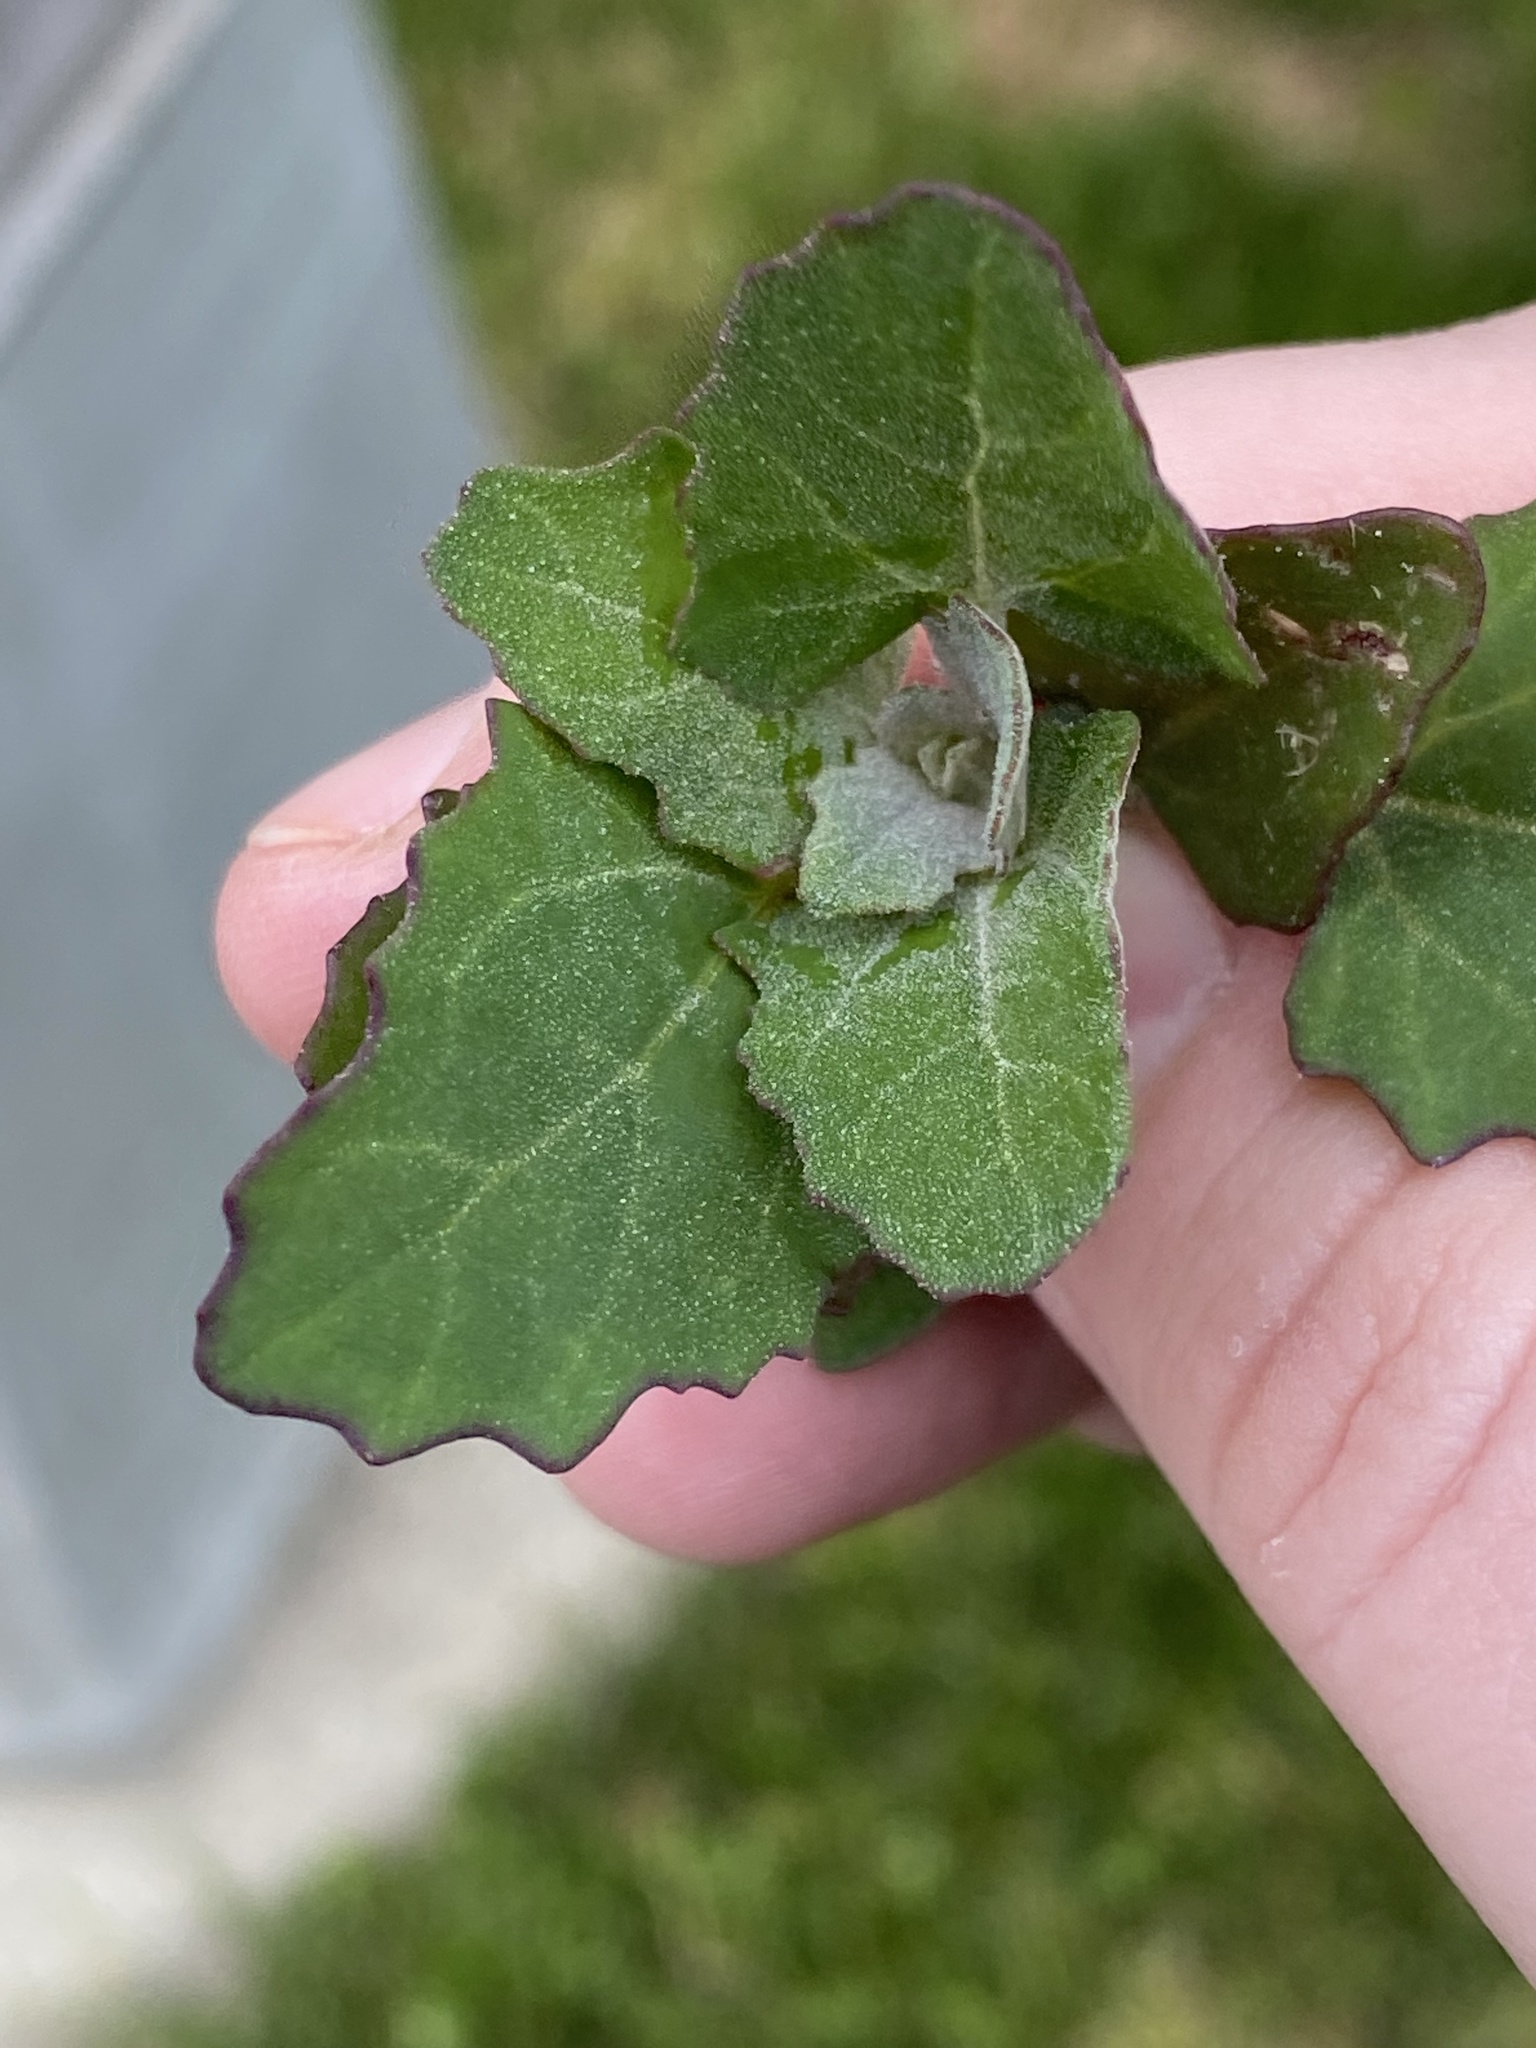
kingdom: Plantae
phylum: Tracheophyta
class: Magnoliopsida
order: Caryophyllales
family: Amaranthaceae
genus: Chenopodium
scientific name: Chenopodium album
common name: Fat-hen
